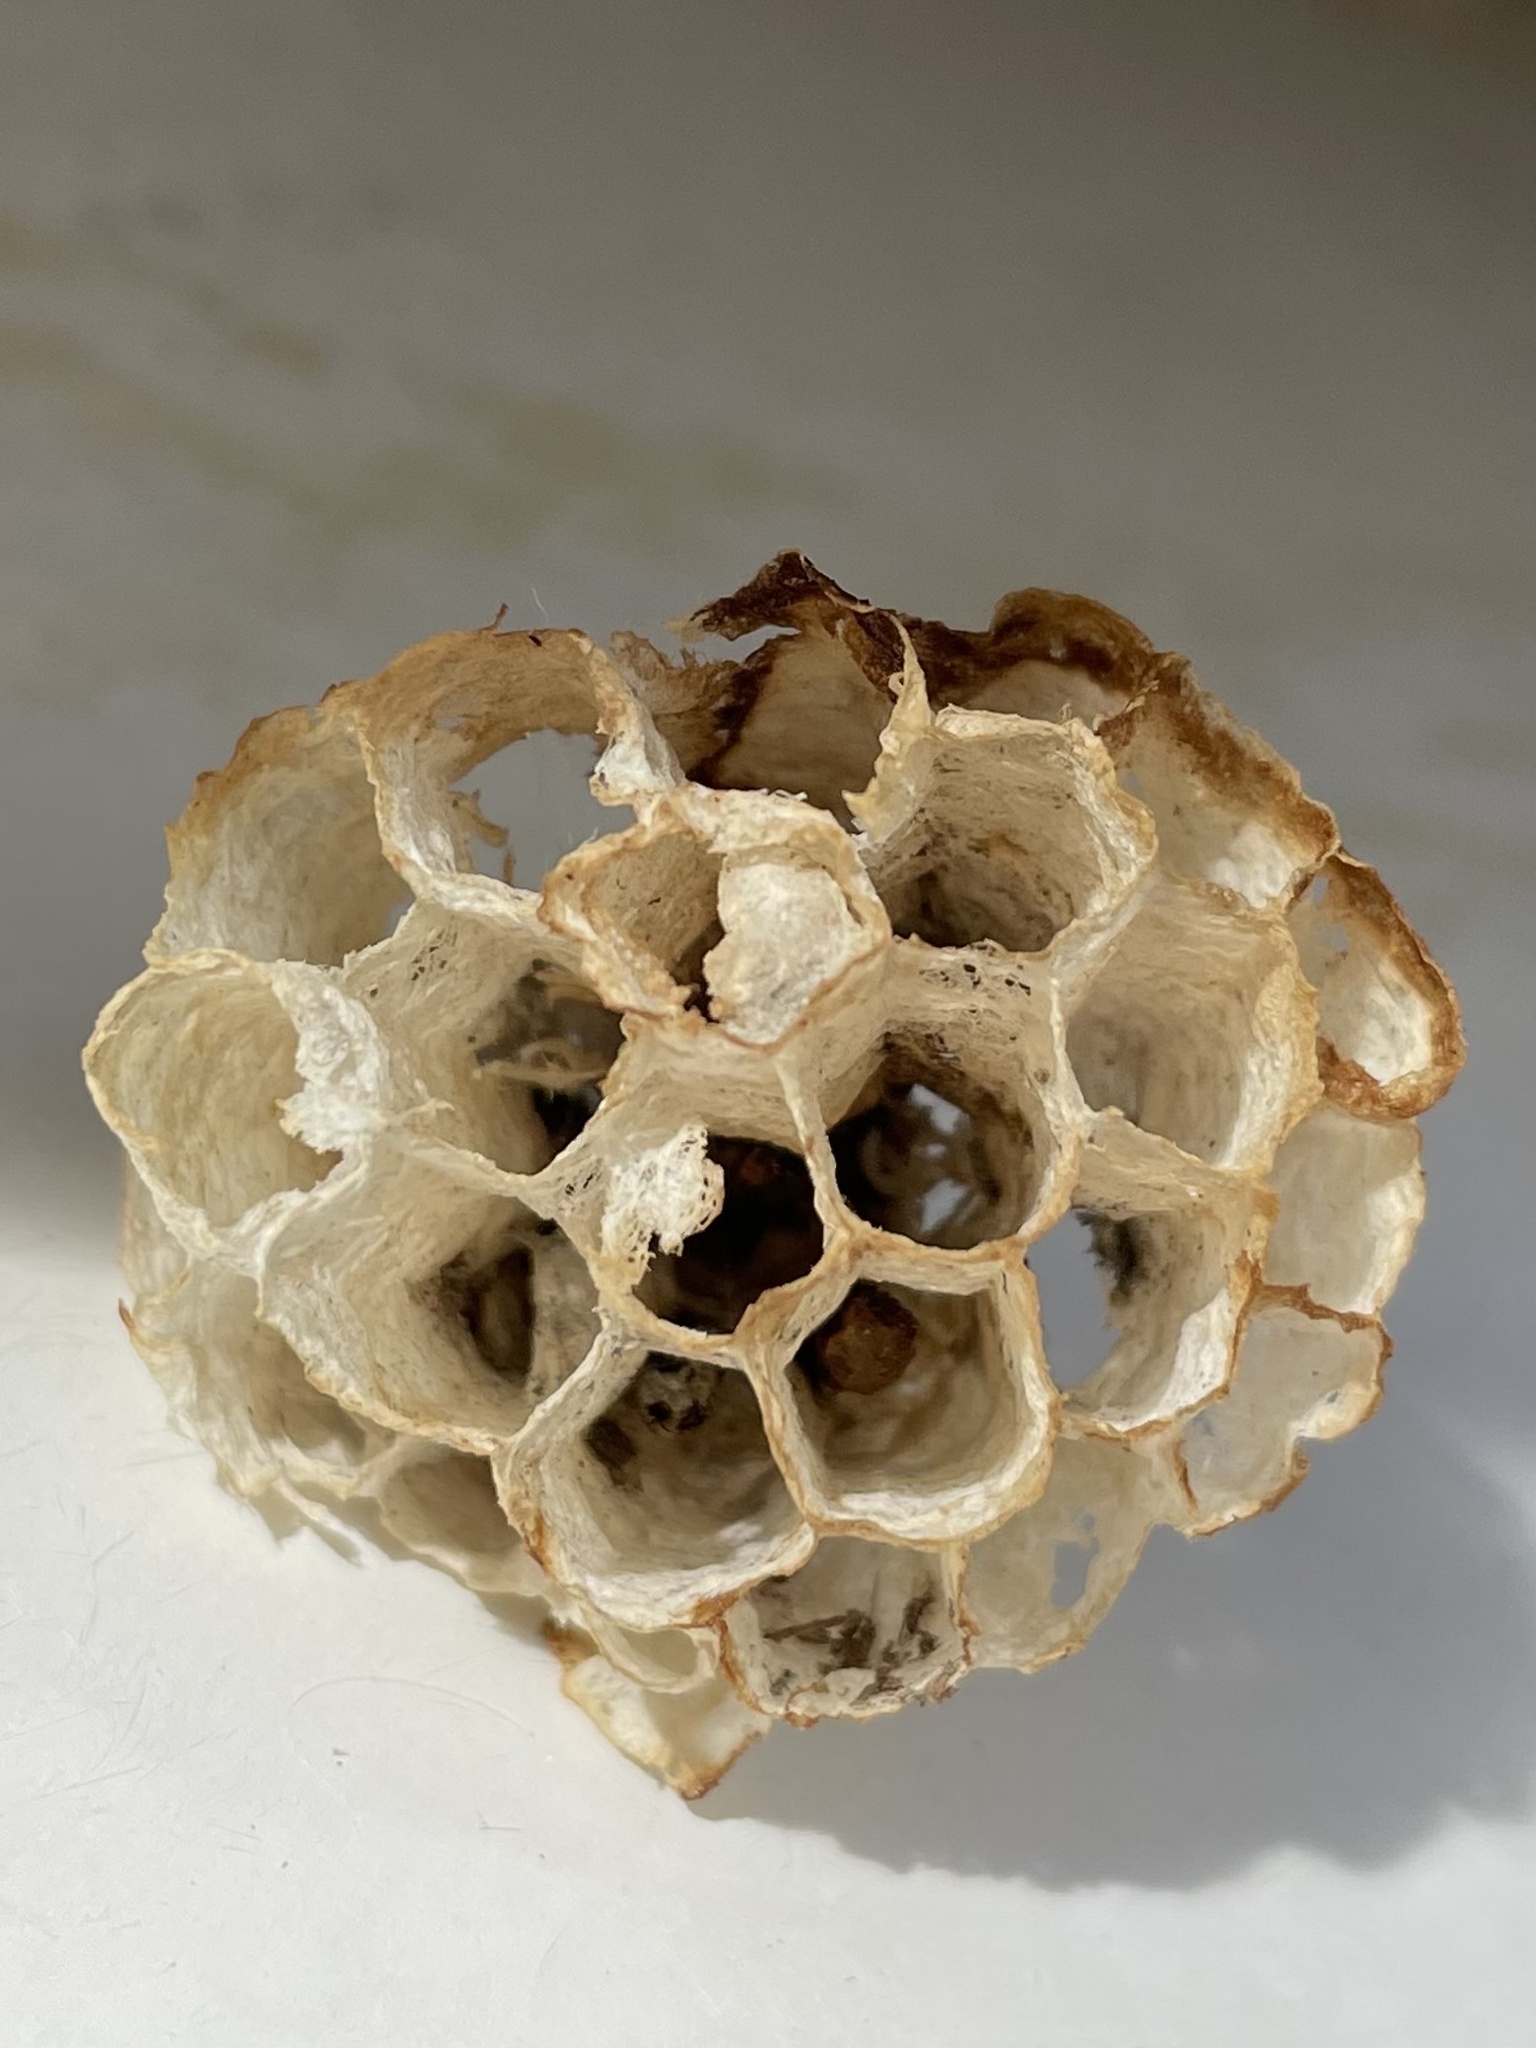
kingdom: Animalia
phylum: Arthropoda
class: Insecta
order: Hymenoptera
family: Eumenidae
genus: Polistes
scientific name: Polistes fuscatus
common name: Dark paper wasp
